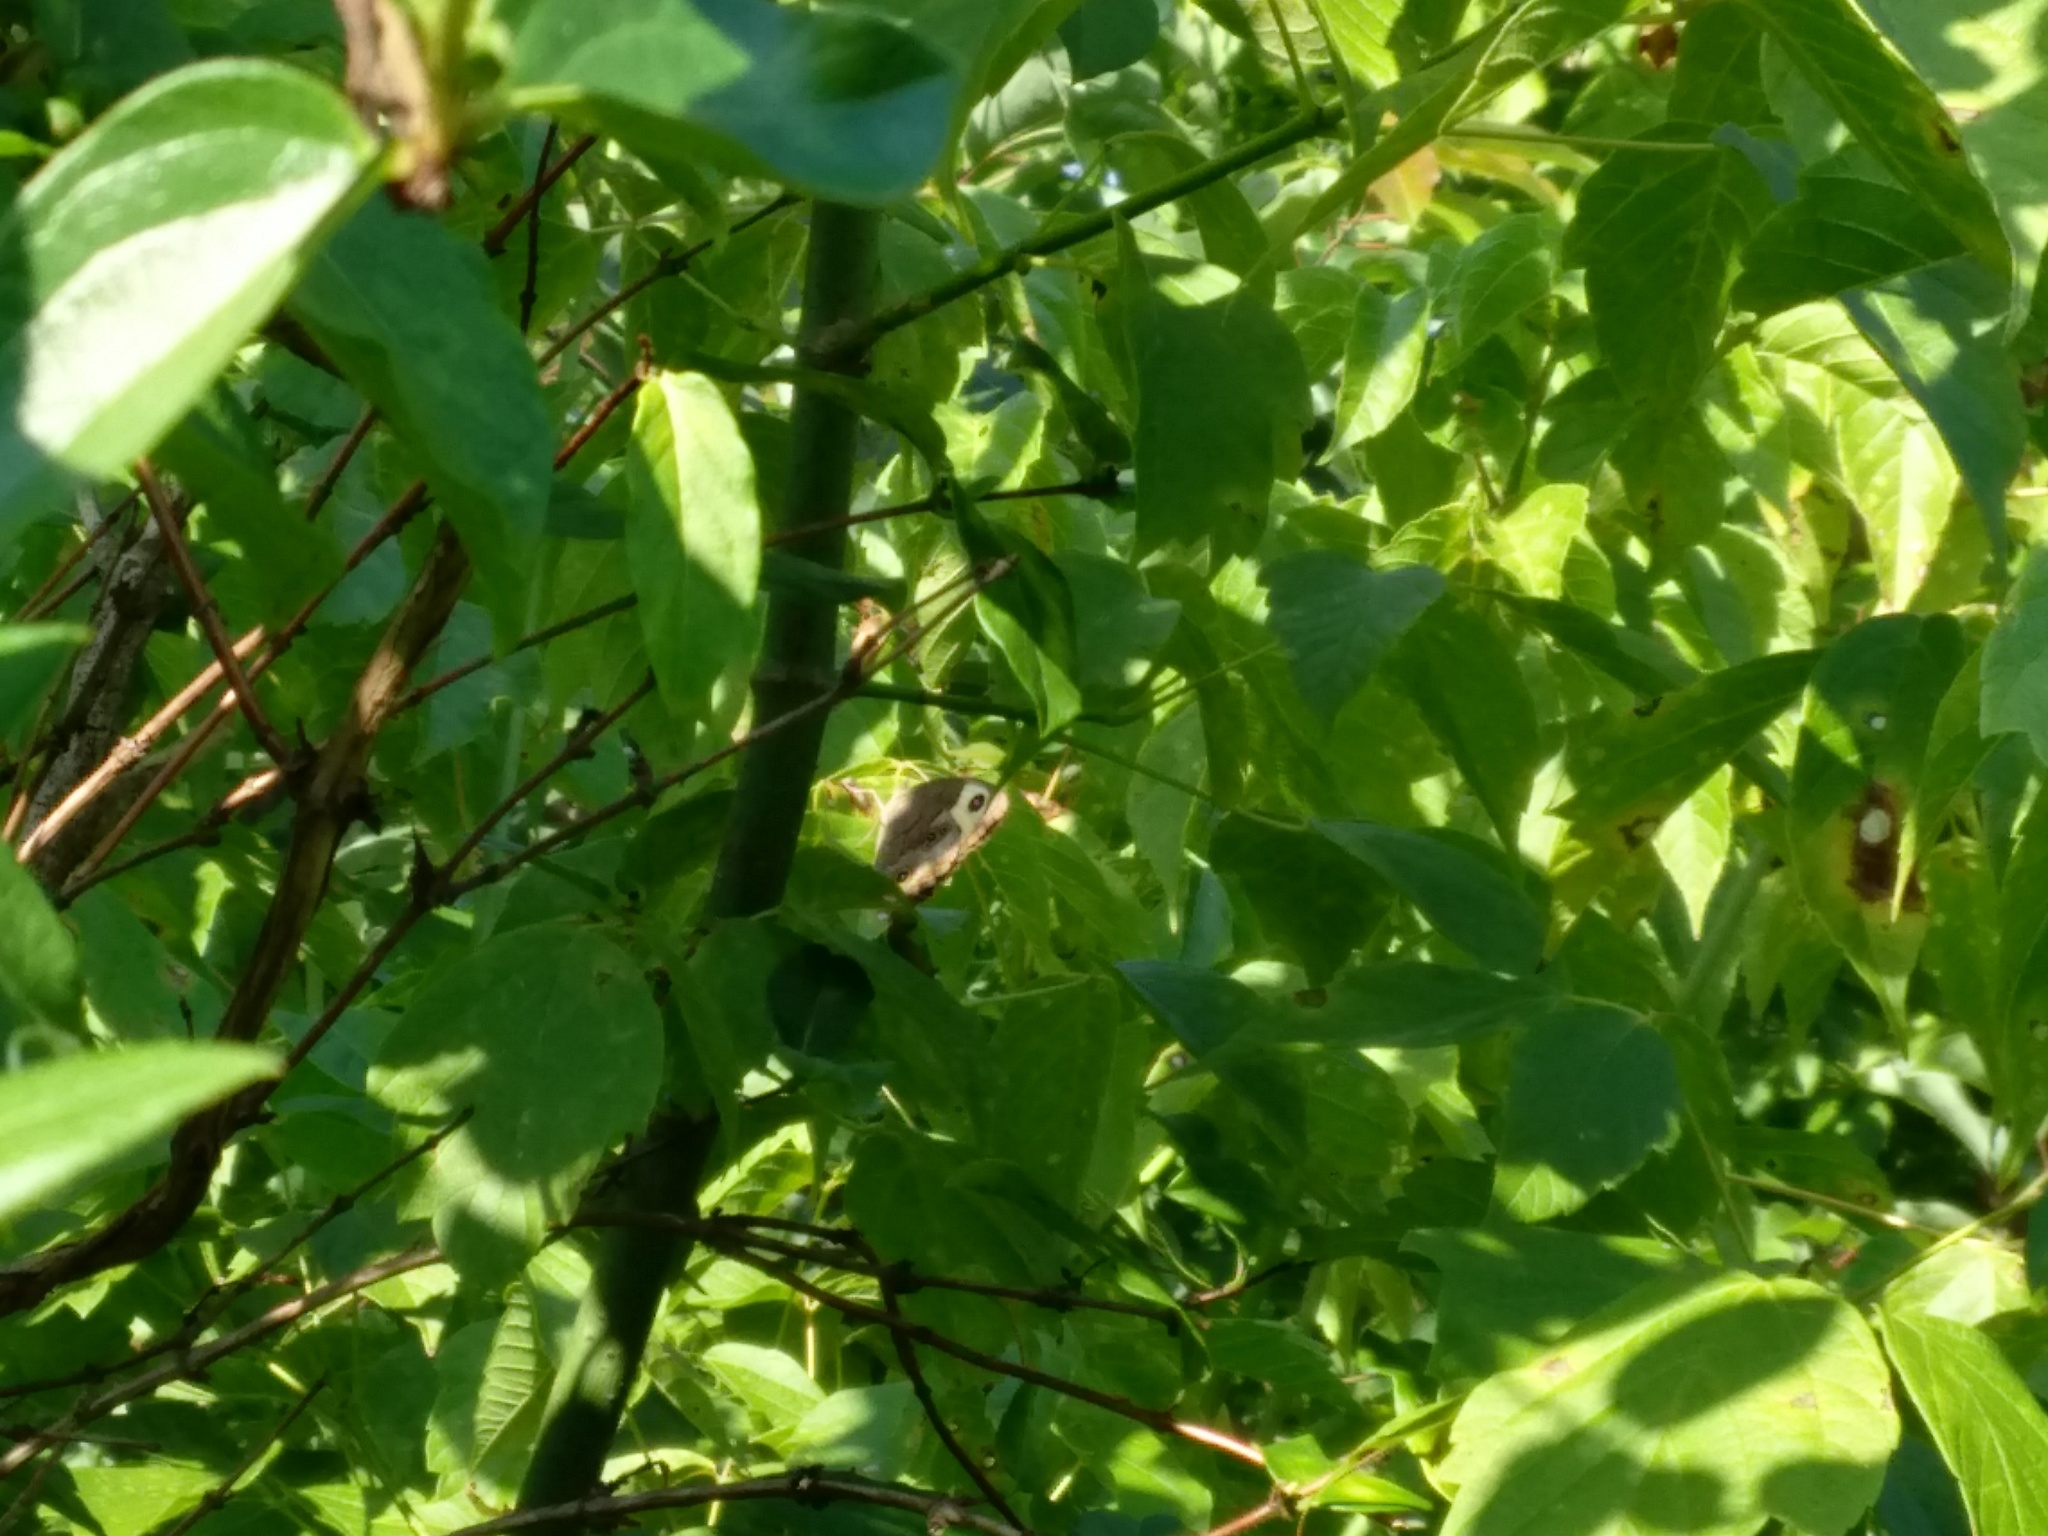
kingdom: Animalia
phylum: Arthropoda
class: Insecta
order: Lepidoptera
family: Nymphalidae
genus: Cercyonis
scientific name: Cercyonis pegala
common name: Common wood-nymph
